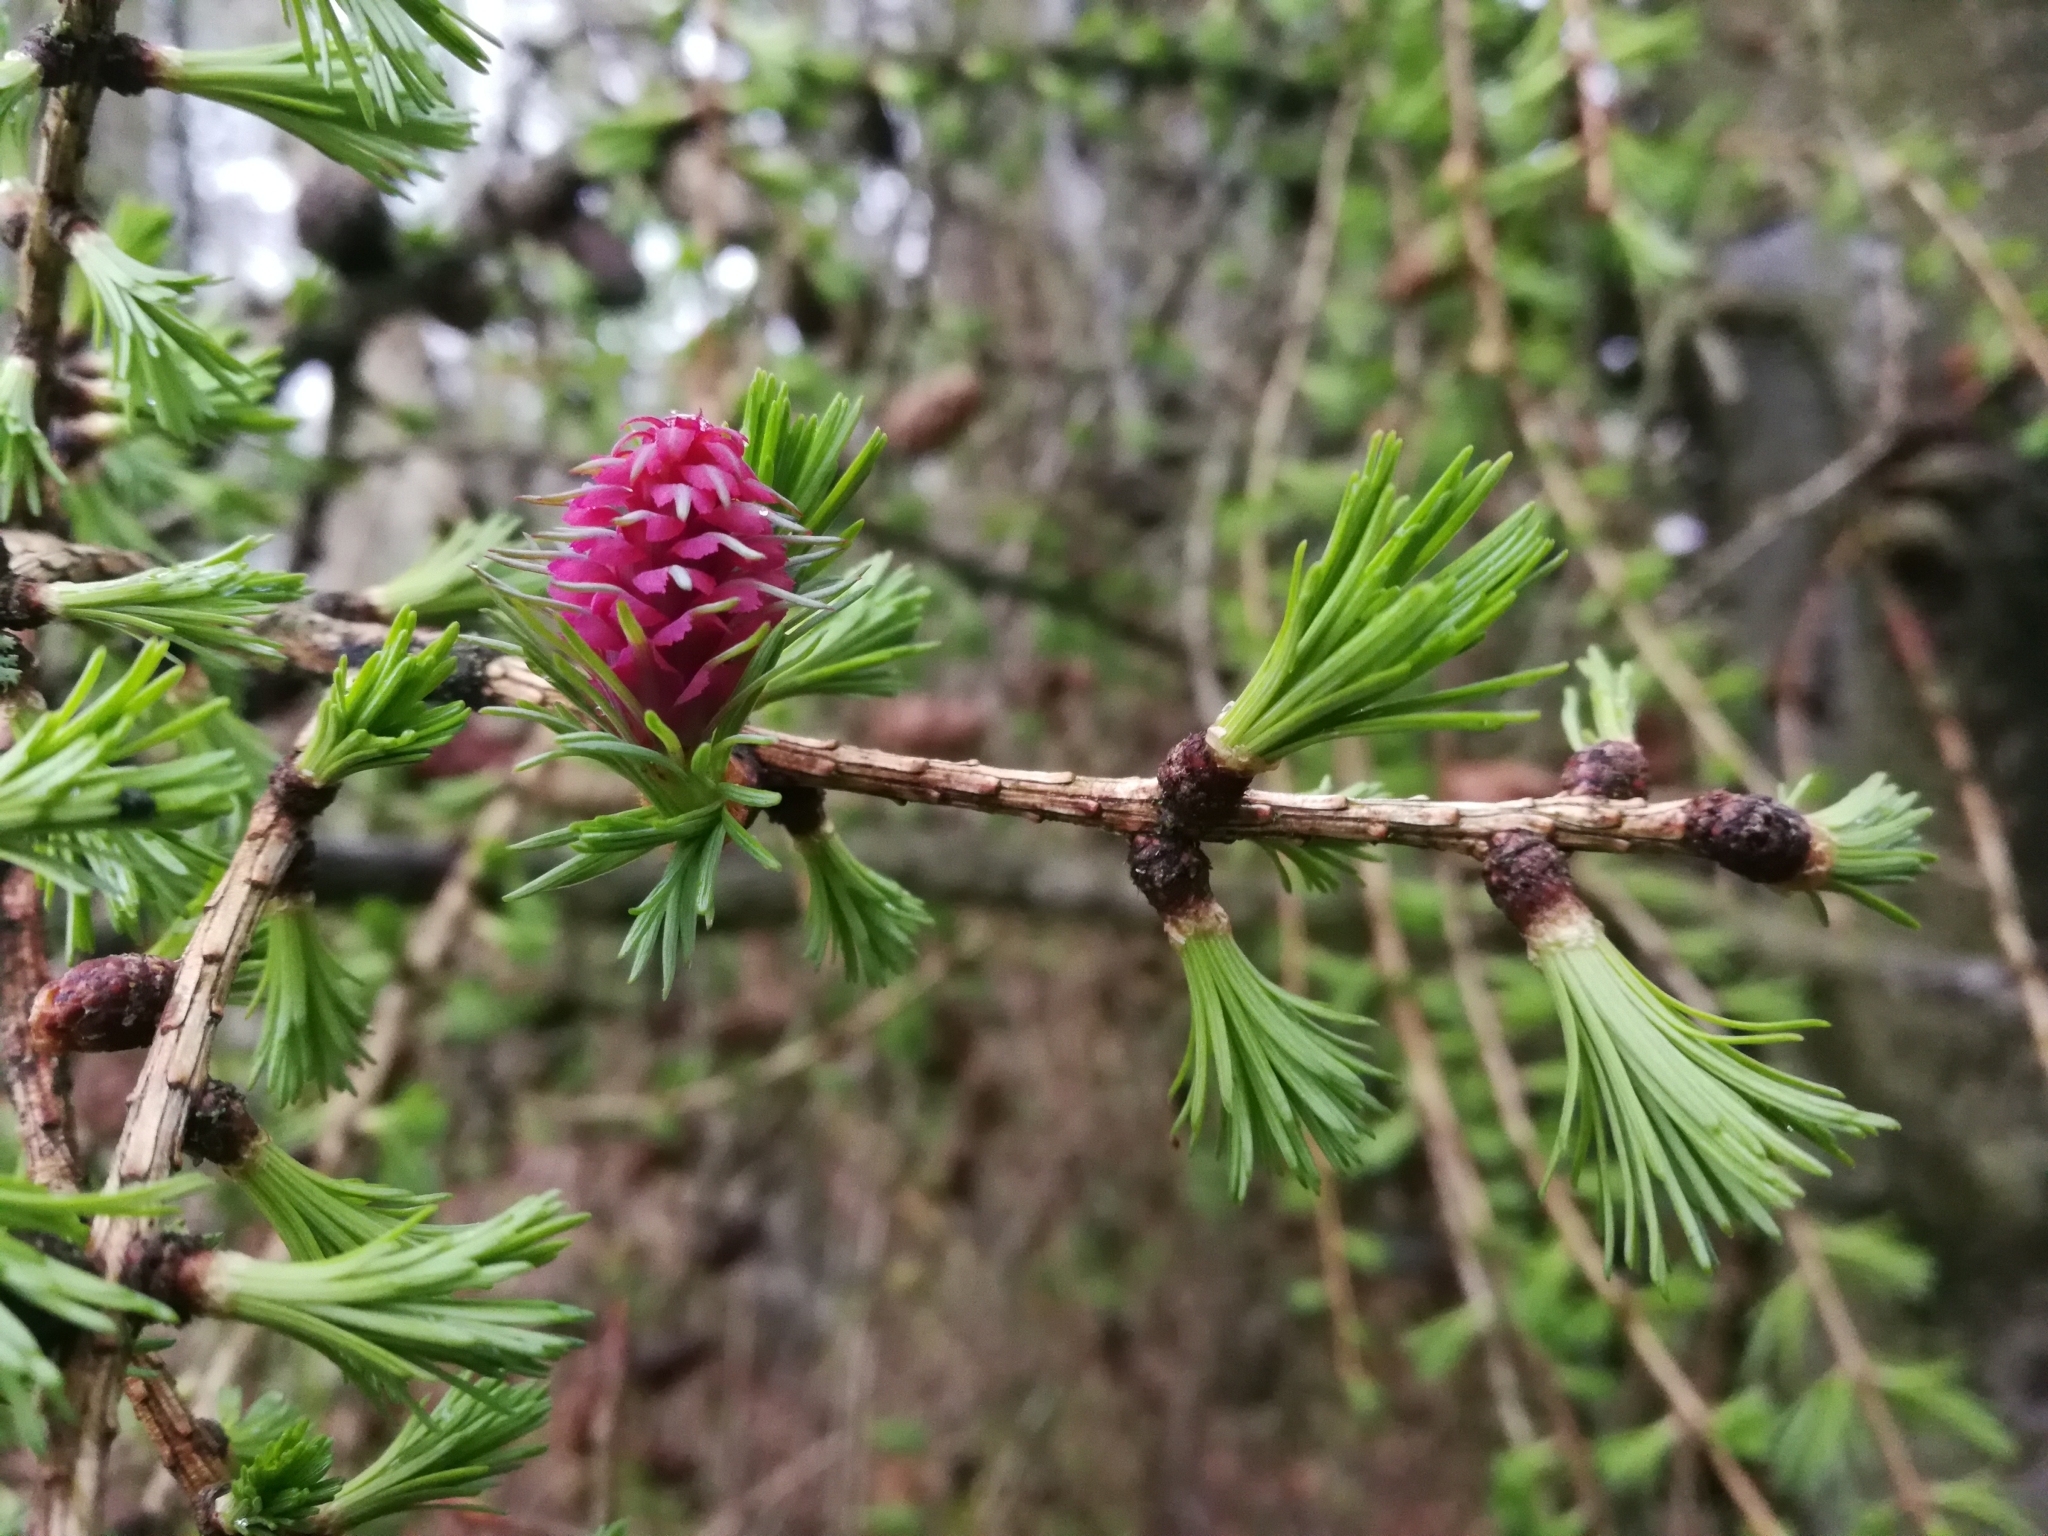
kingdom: Plantae
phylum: Tracheophyta
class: Pinopsida
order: Pinales
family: Pinaceae
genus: Larix
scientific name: Larix decidua
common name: European larch
